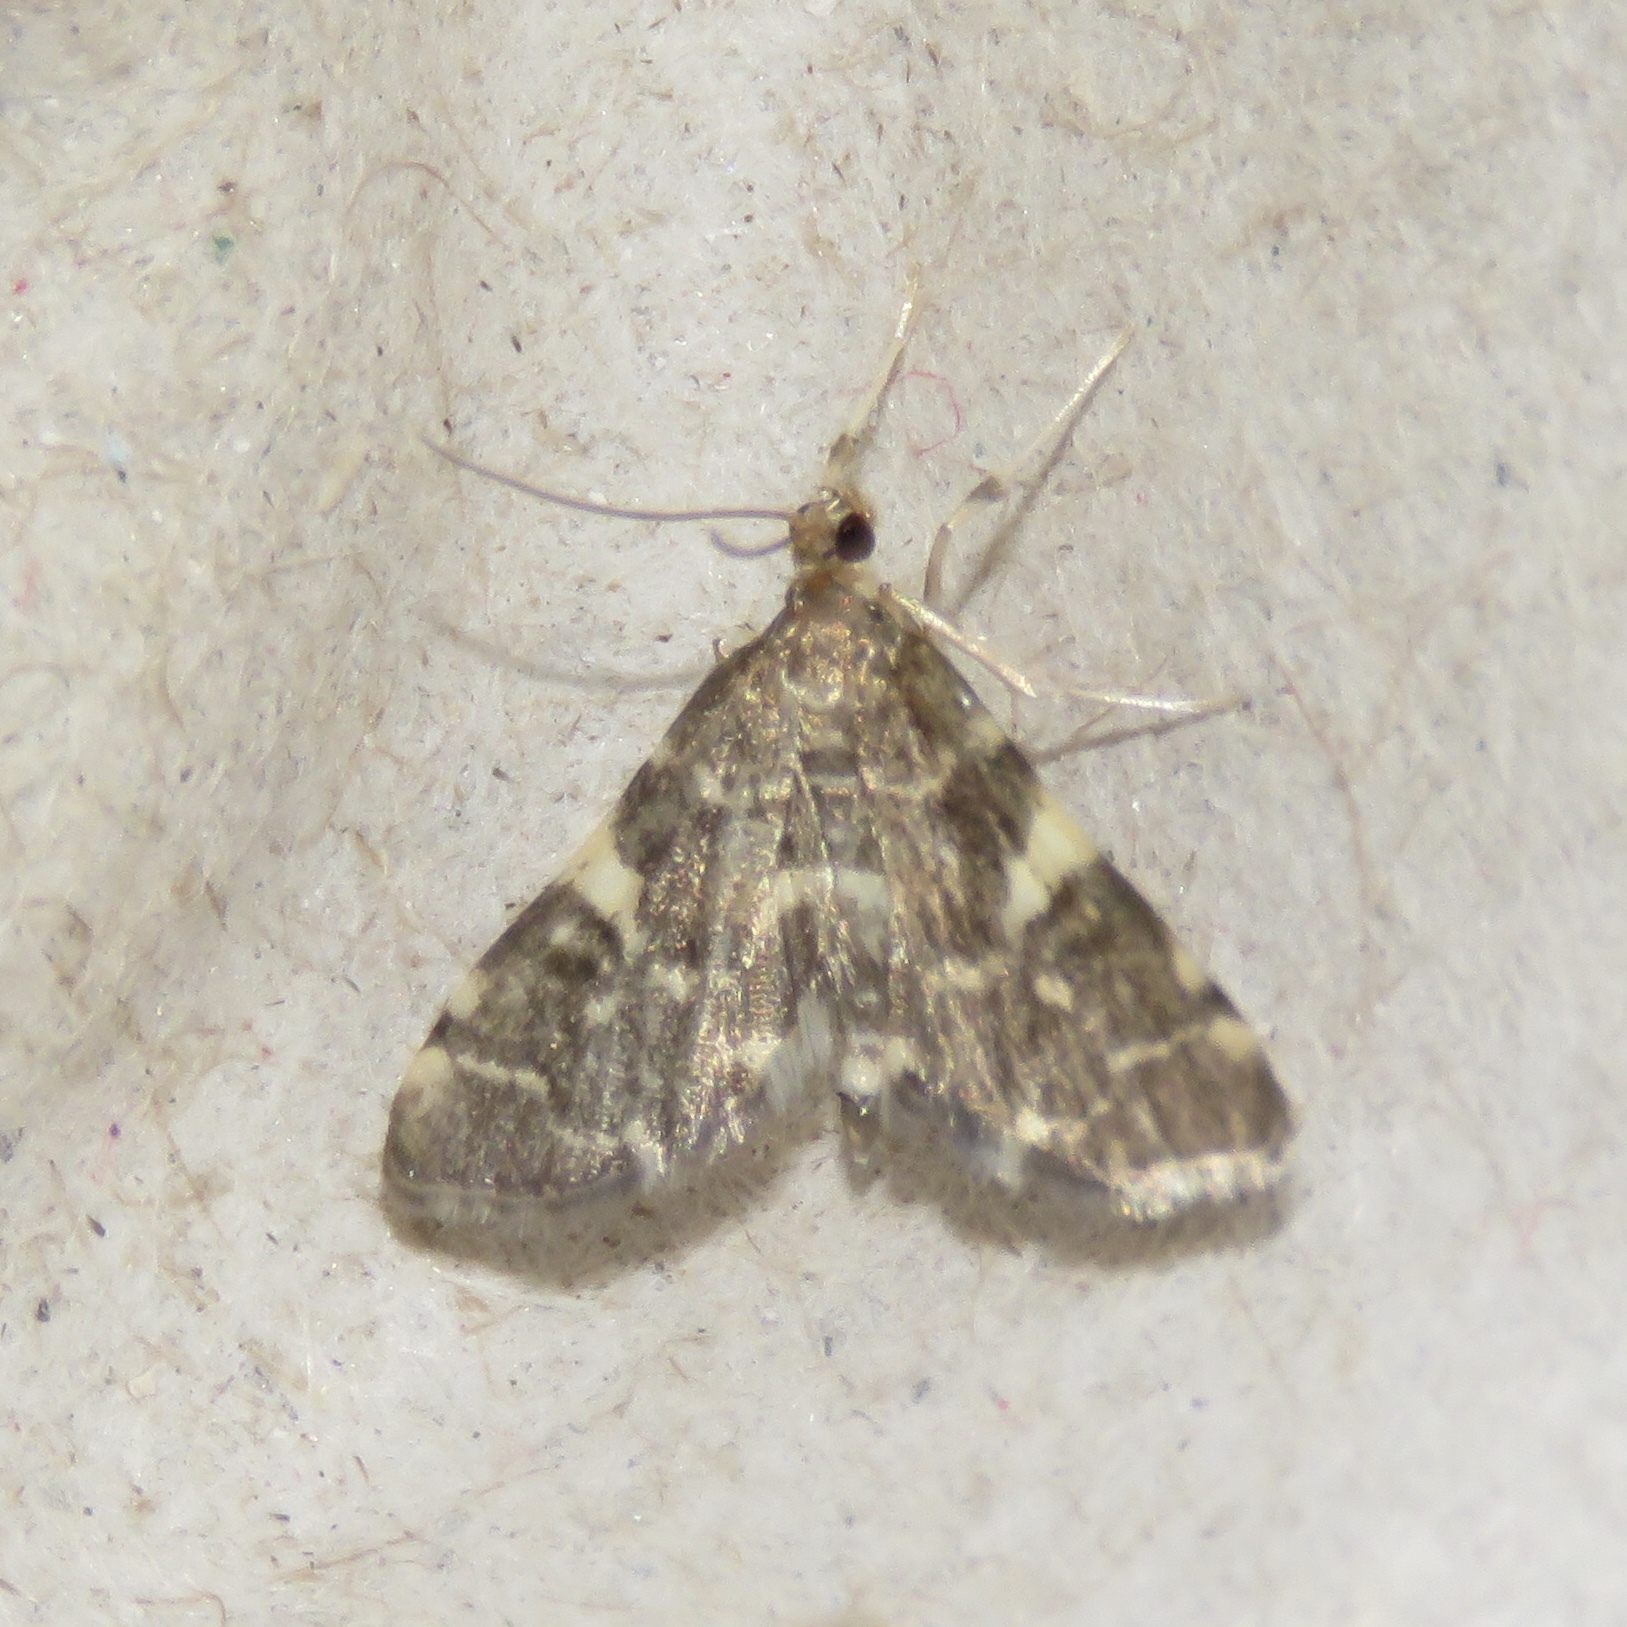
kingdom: Animalia
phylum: Arthropoda
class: Insecta
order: Lepidoptera
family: Crambidae
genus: Anageshna
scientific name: Anageshna primordialis
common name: Yellow-spotted webworm moth
